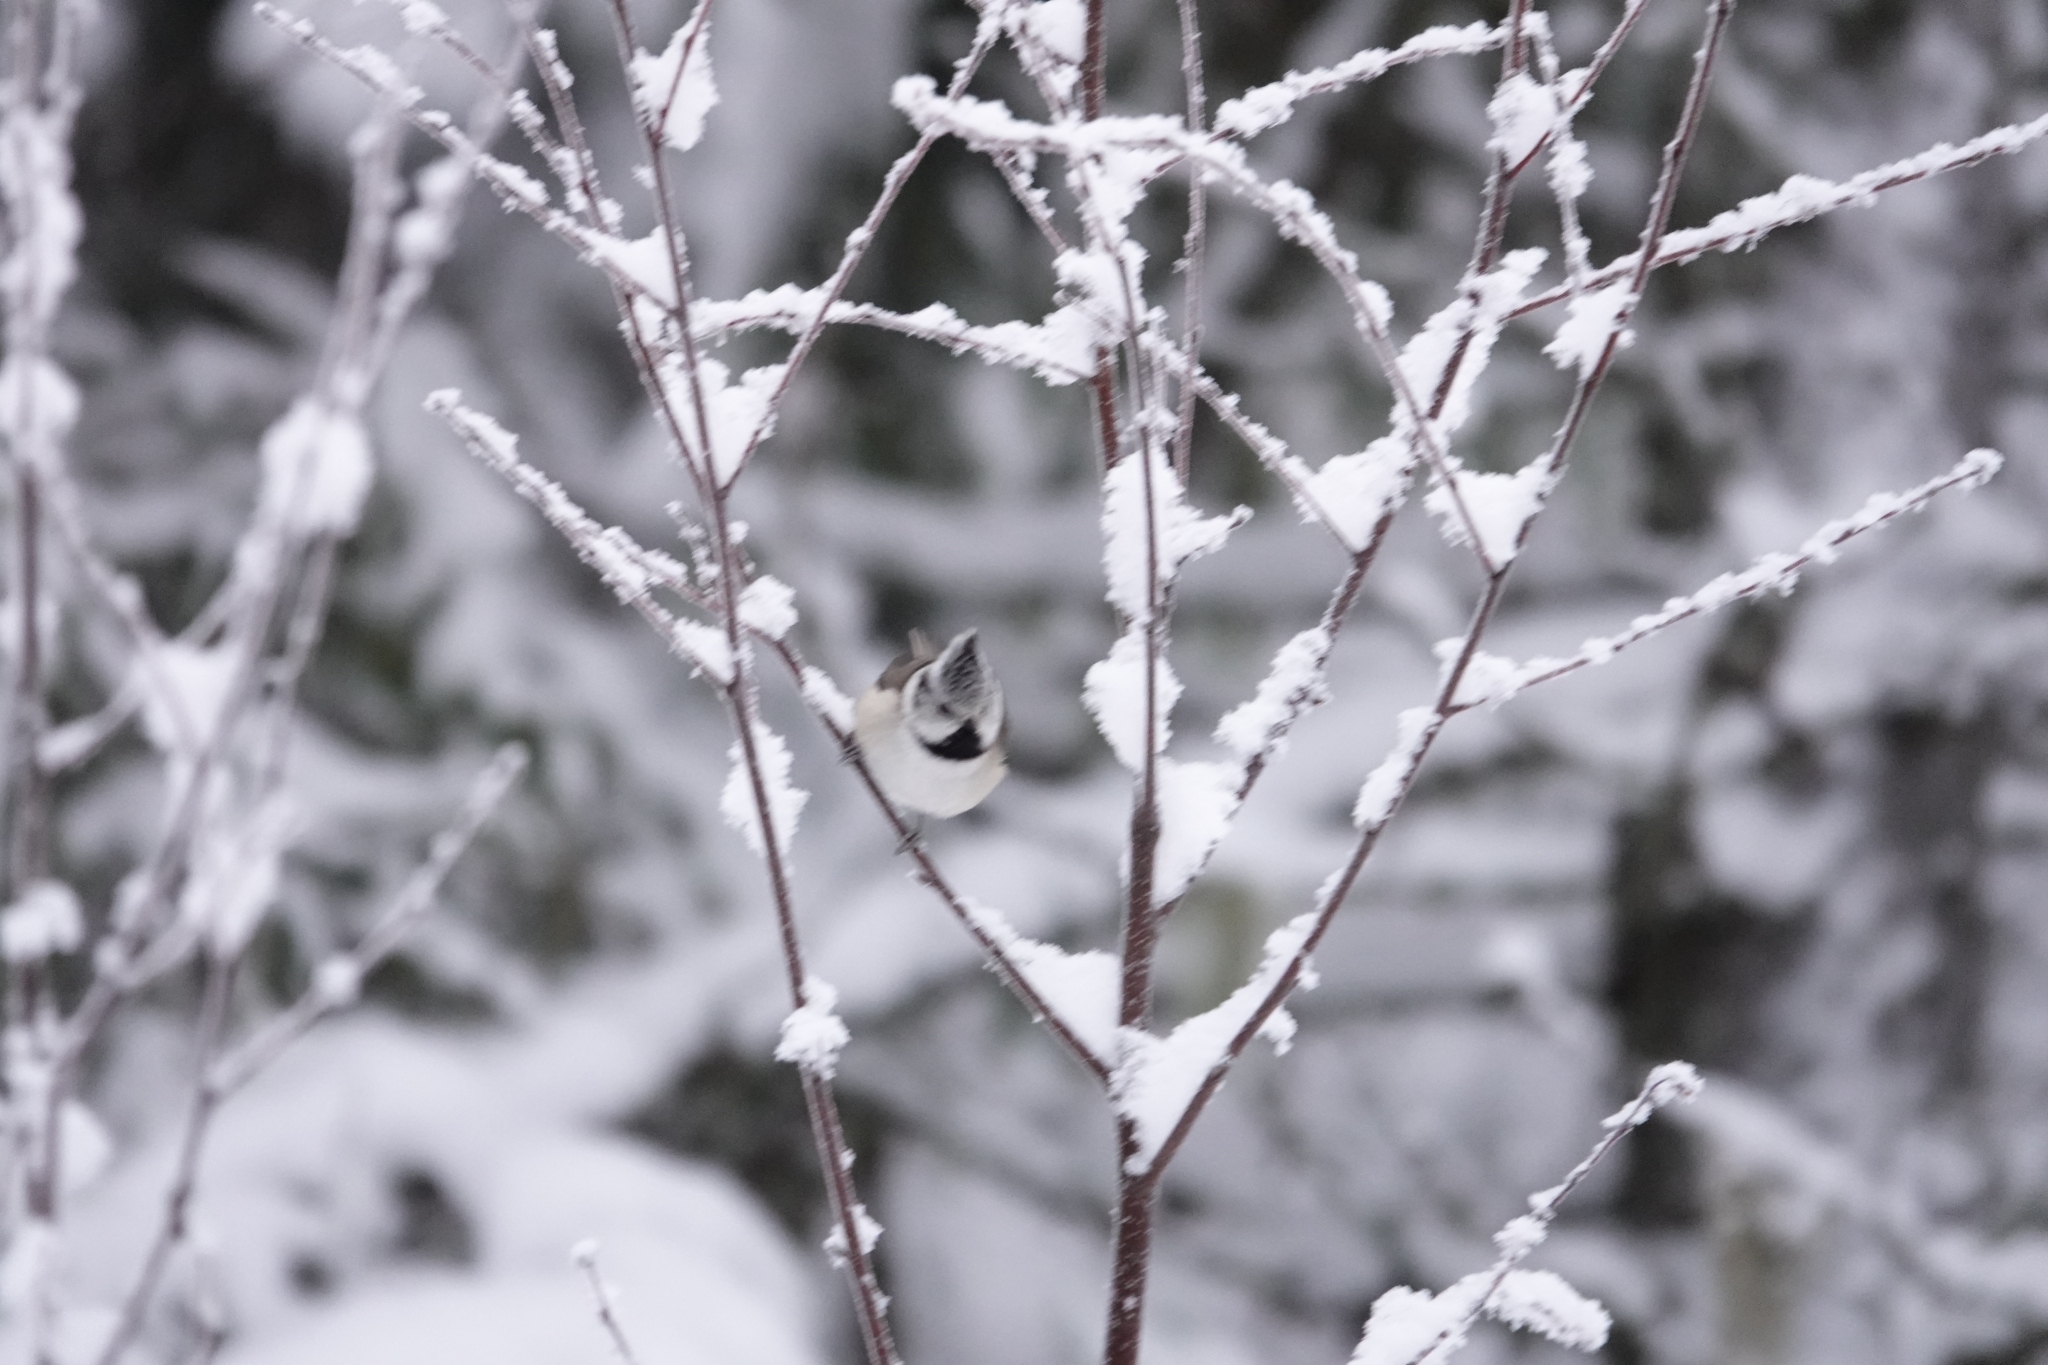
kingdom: Animalia
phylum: Chordata
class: Aves
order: Passeriformes
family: Paridae
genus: Lophophanes
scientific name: Lophophanes cristatus
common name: European crested tit
